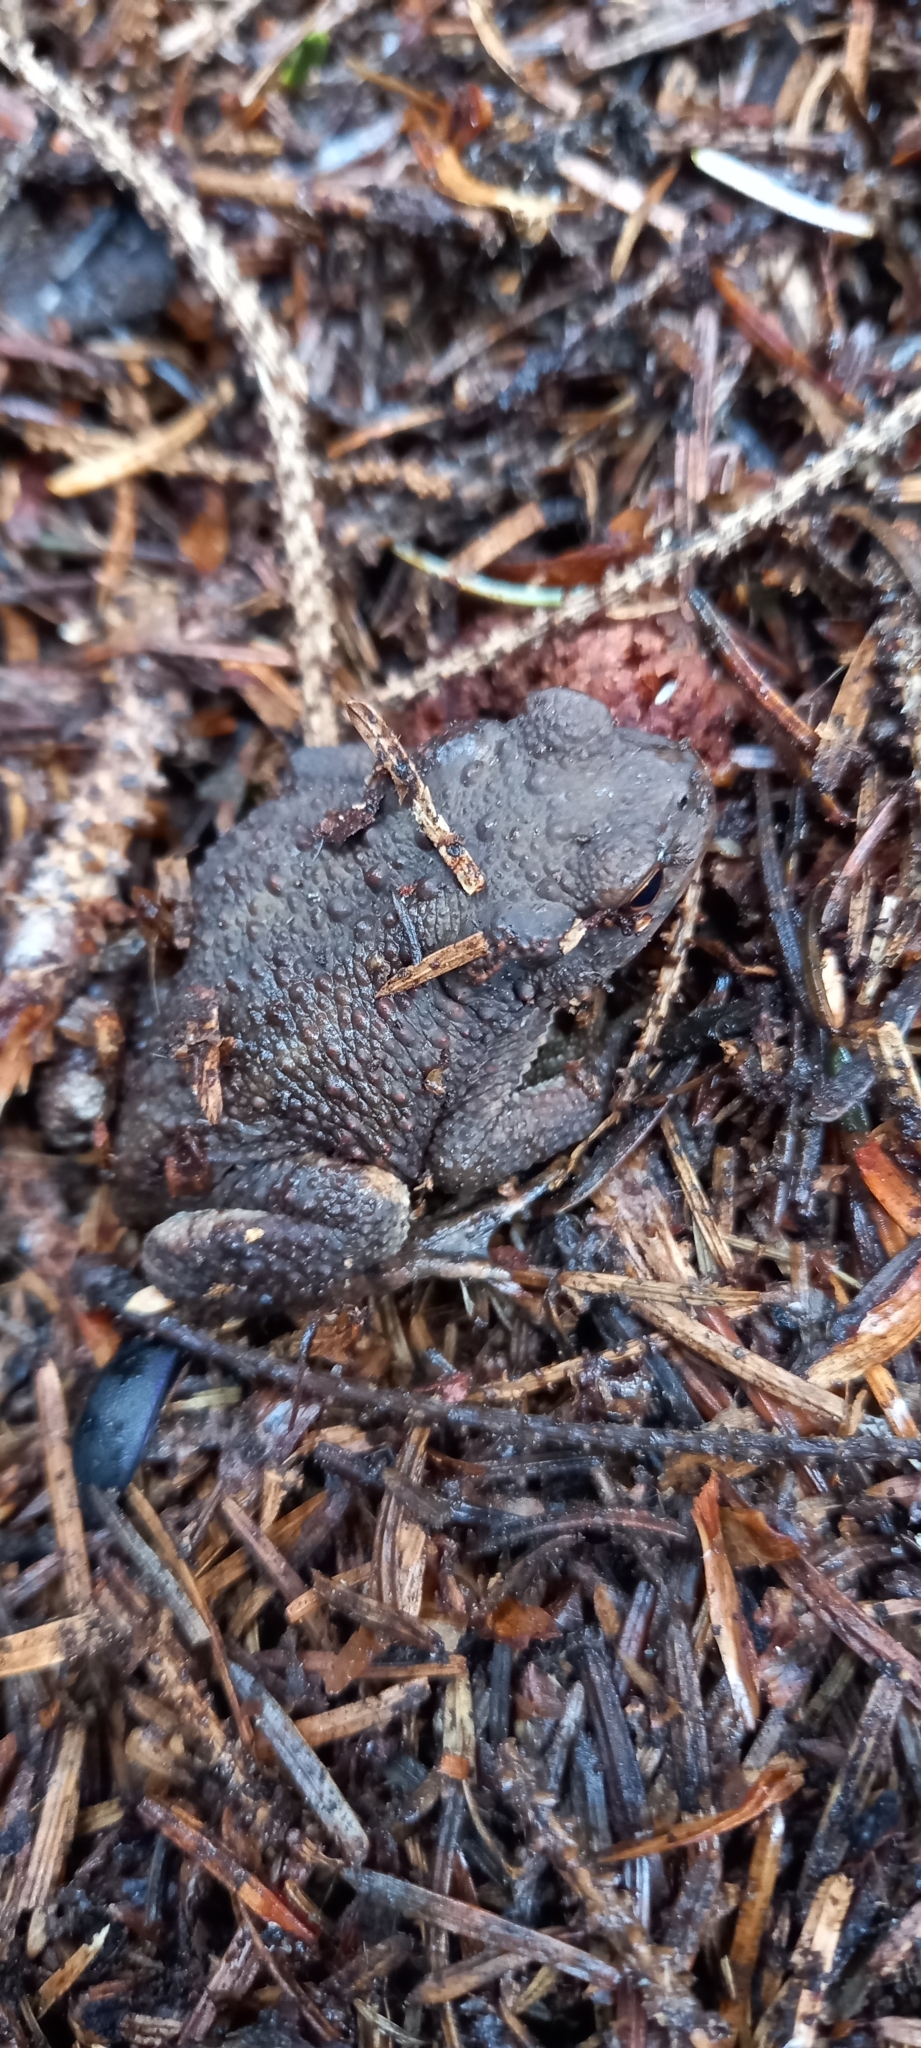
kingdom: Animalia
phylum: Chordata
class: Amphibia
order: Anura
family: Bufonidae
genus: Bufo
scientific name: Bufo bufo
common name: Common toad
